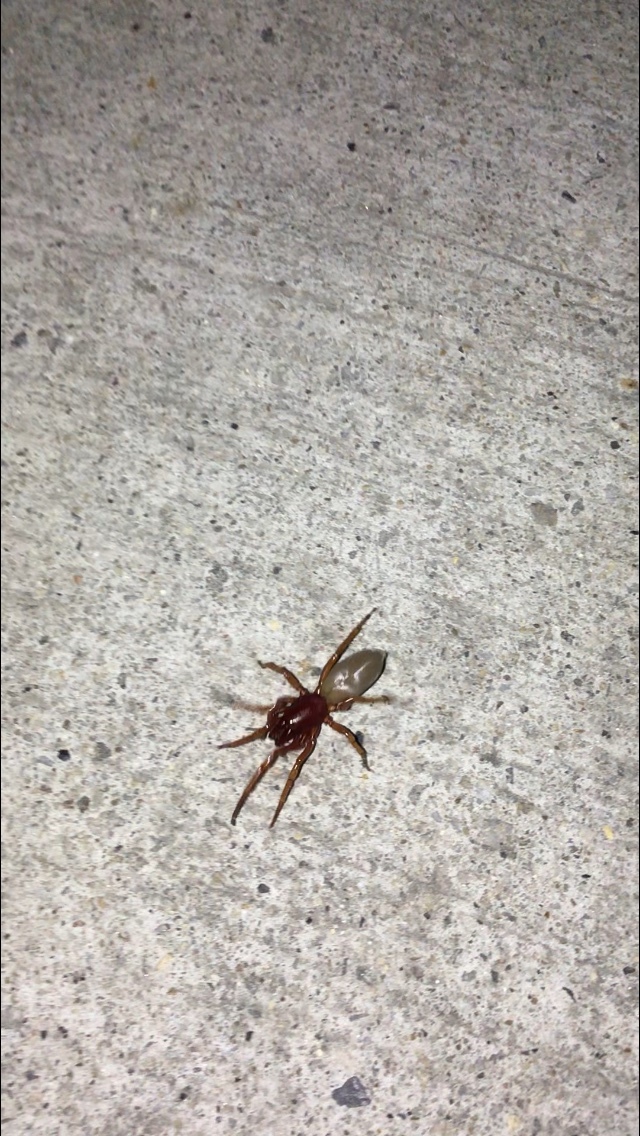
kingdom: Animalia
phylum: Arthropoda
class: Arachnida
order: Araneae
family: Dysderidae
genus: Dysdera
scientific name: Dysdera crocata
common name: Woodlouse spider
